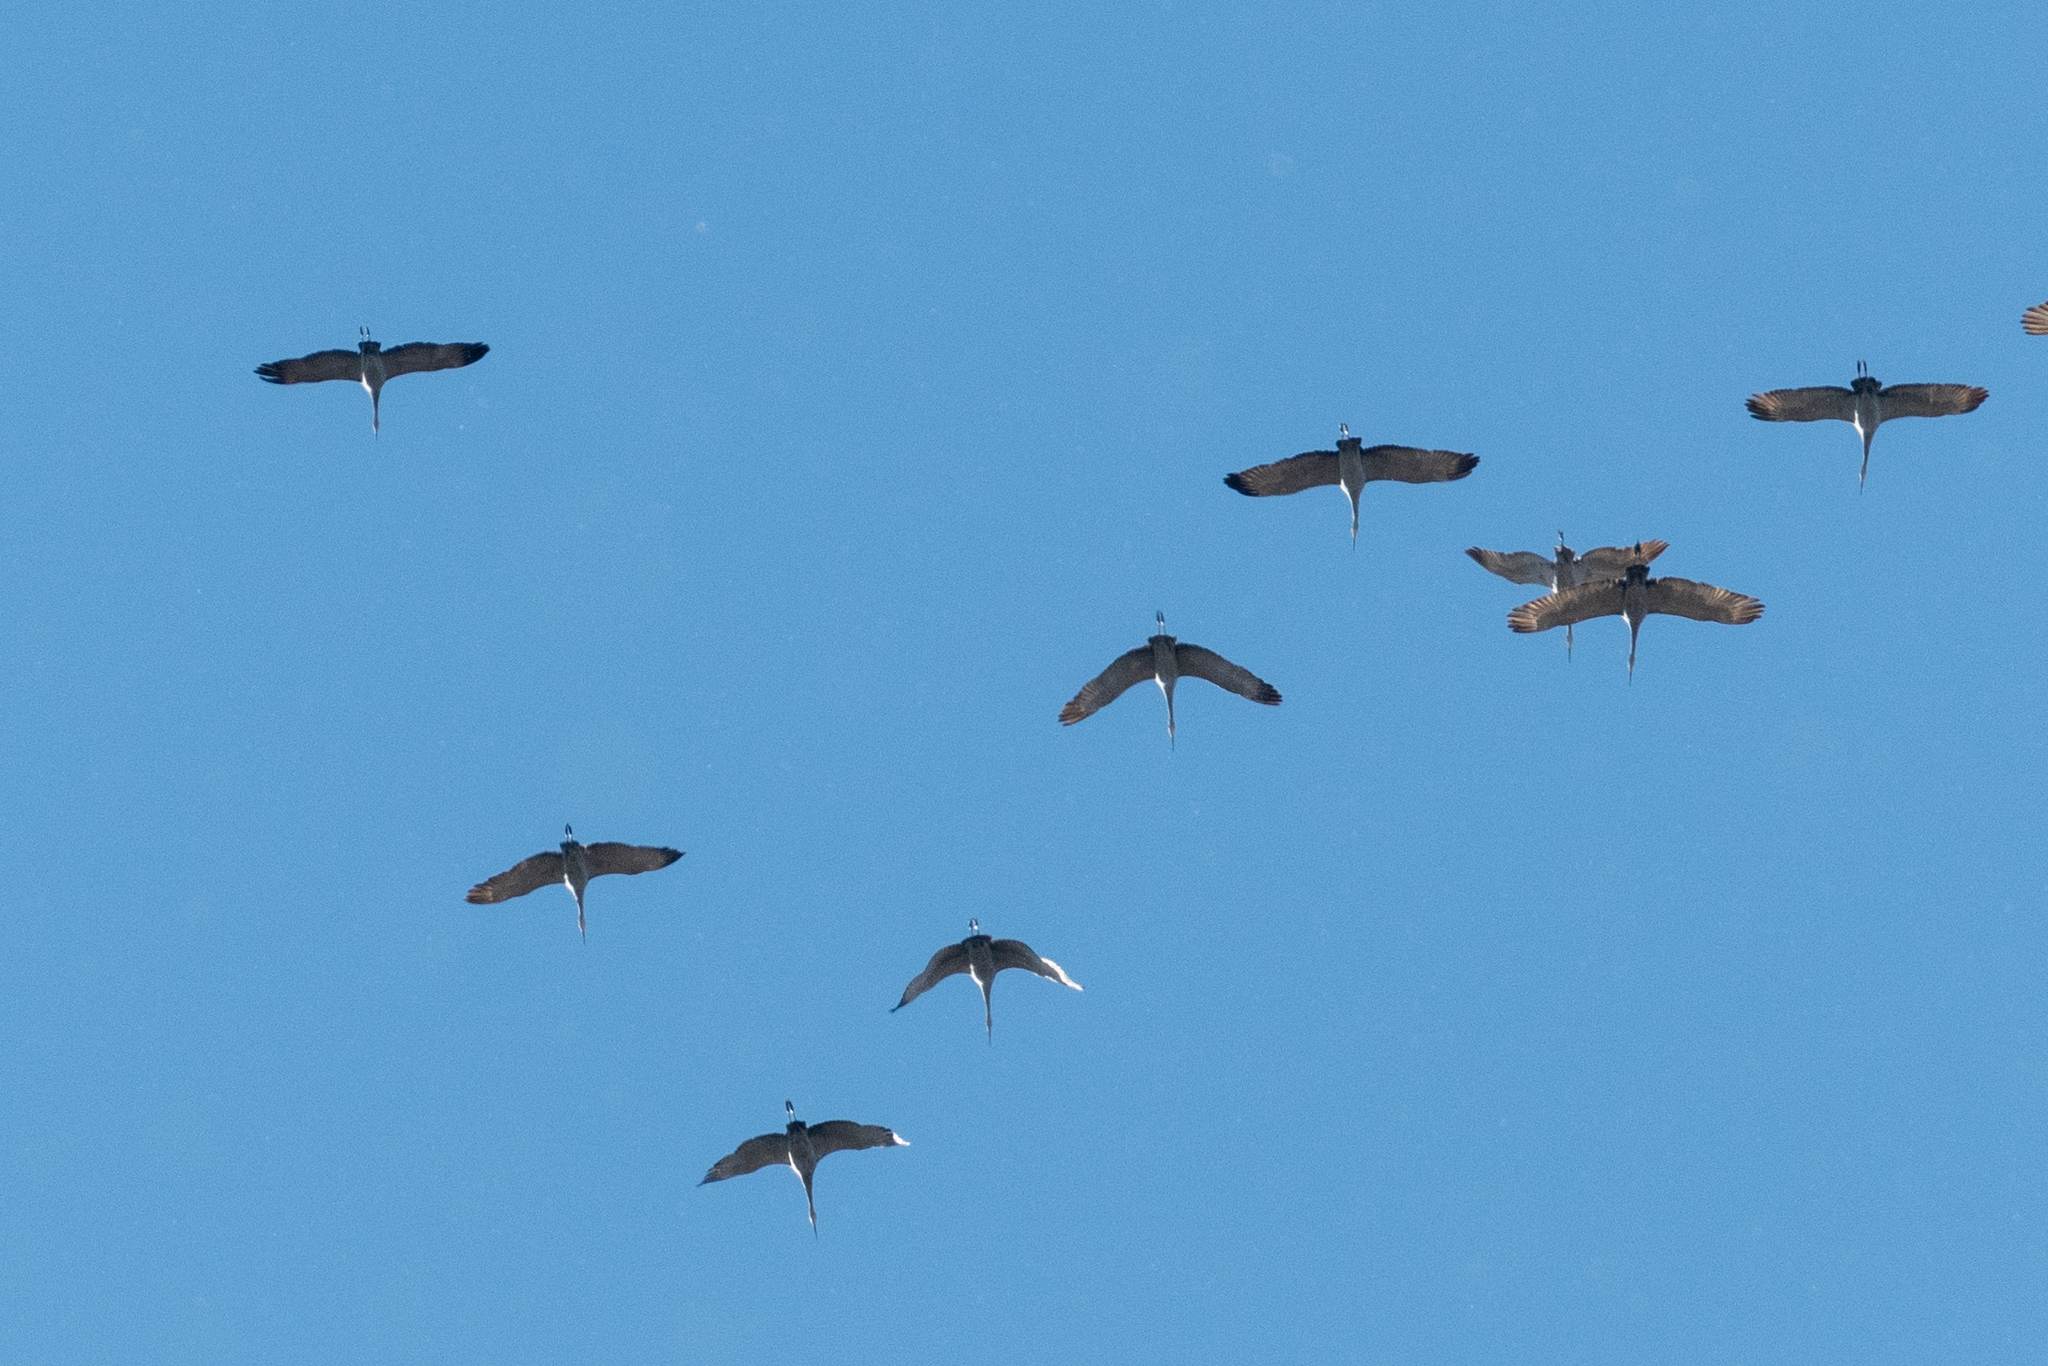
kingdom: Animalia
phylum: Chordata
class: Aves
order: Gruiformes
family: Gruidae
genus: Grus
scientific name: Grus canadensis
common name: Sandhill crane
